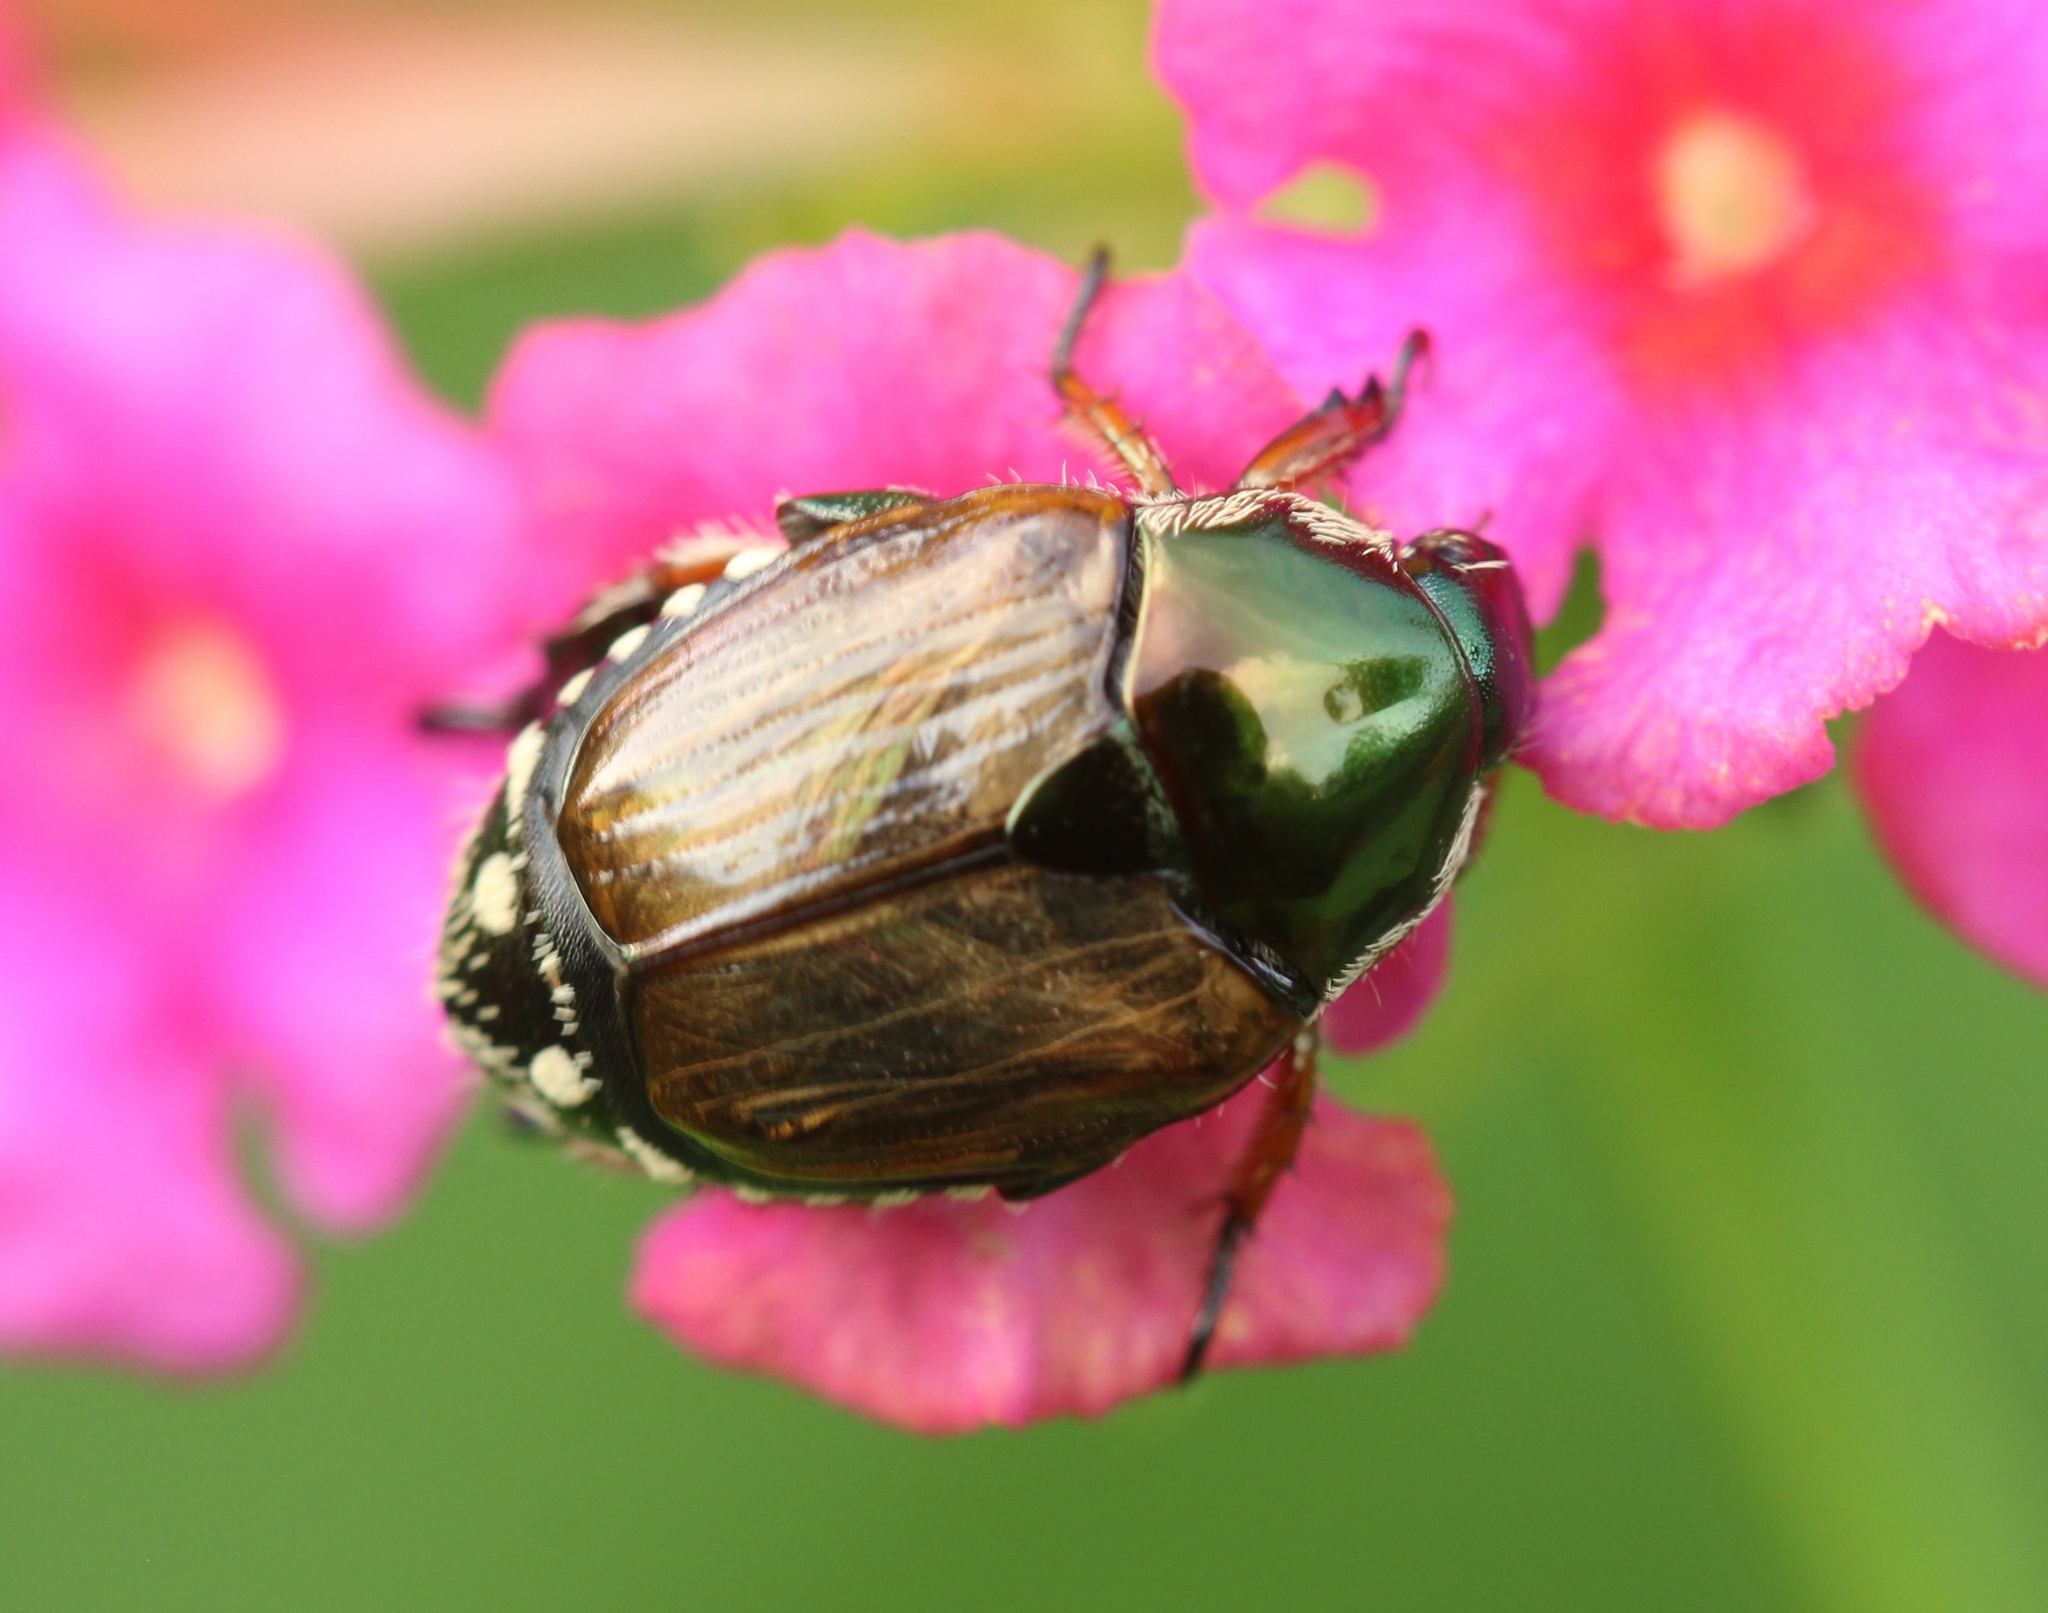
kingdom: Animalia
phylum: Arthropoda
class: Insecta
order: Coleoptera
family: Scarabaeidae
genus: Popillia
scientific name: Popillia japonica
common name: Japanese beetle
